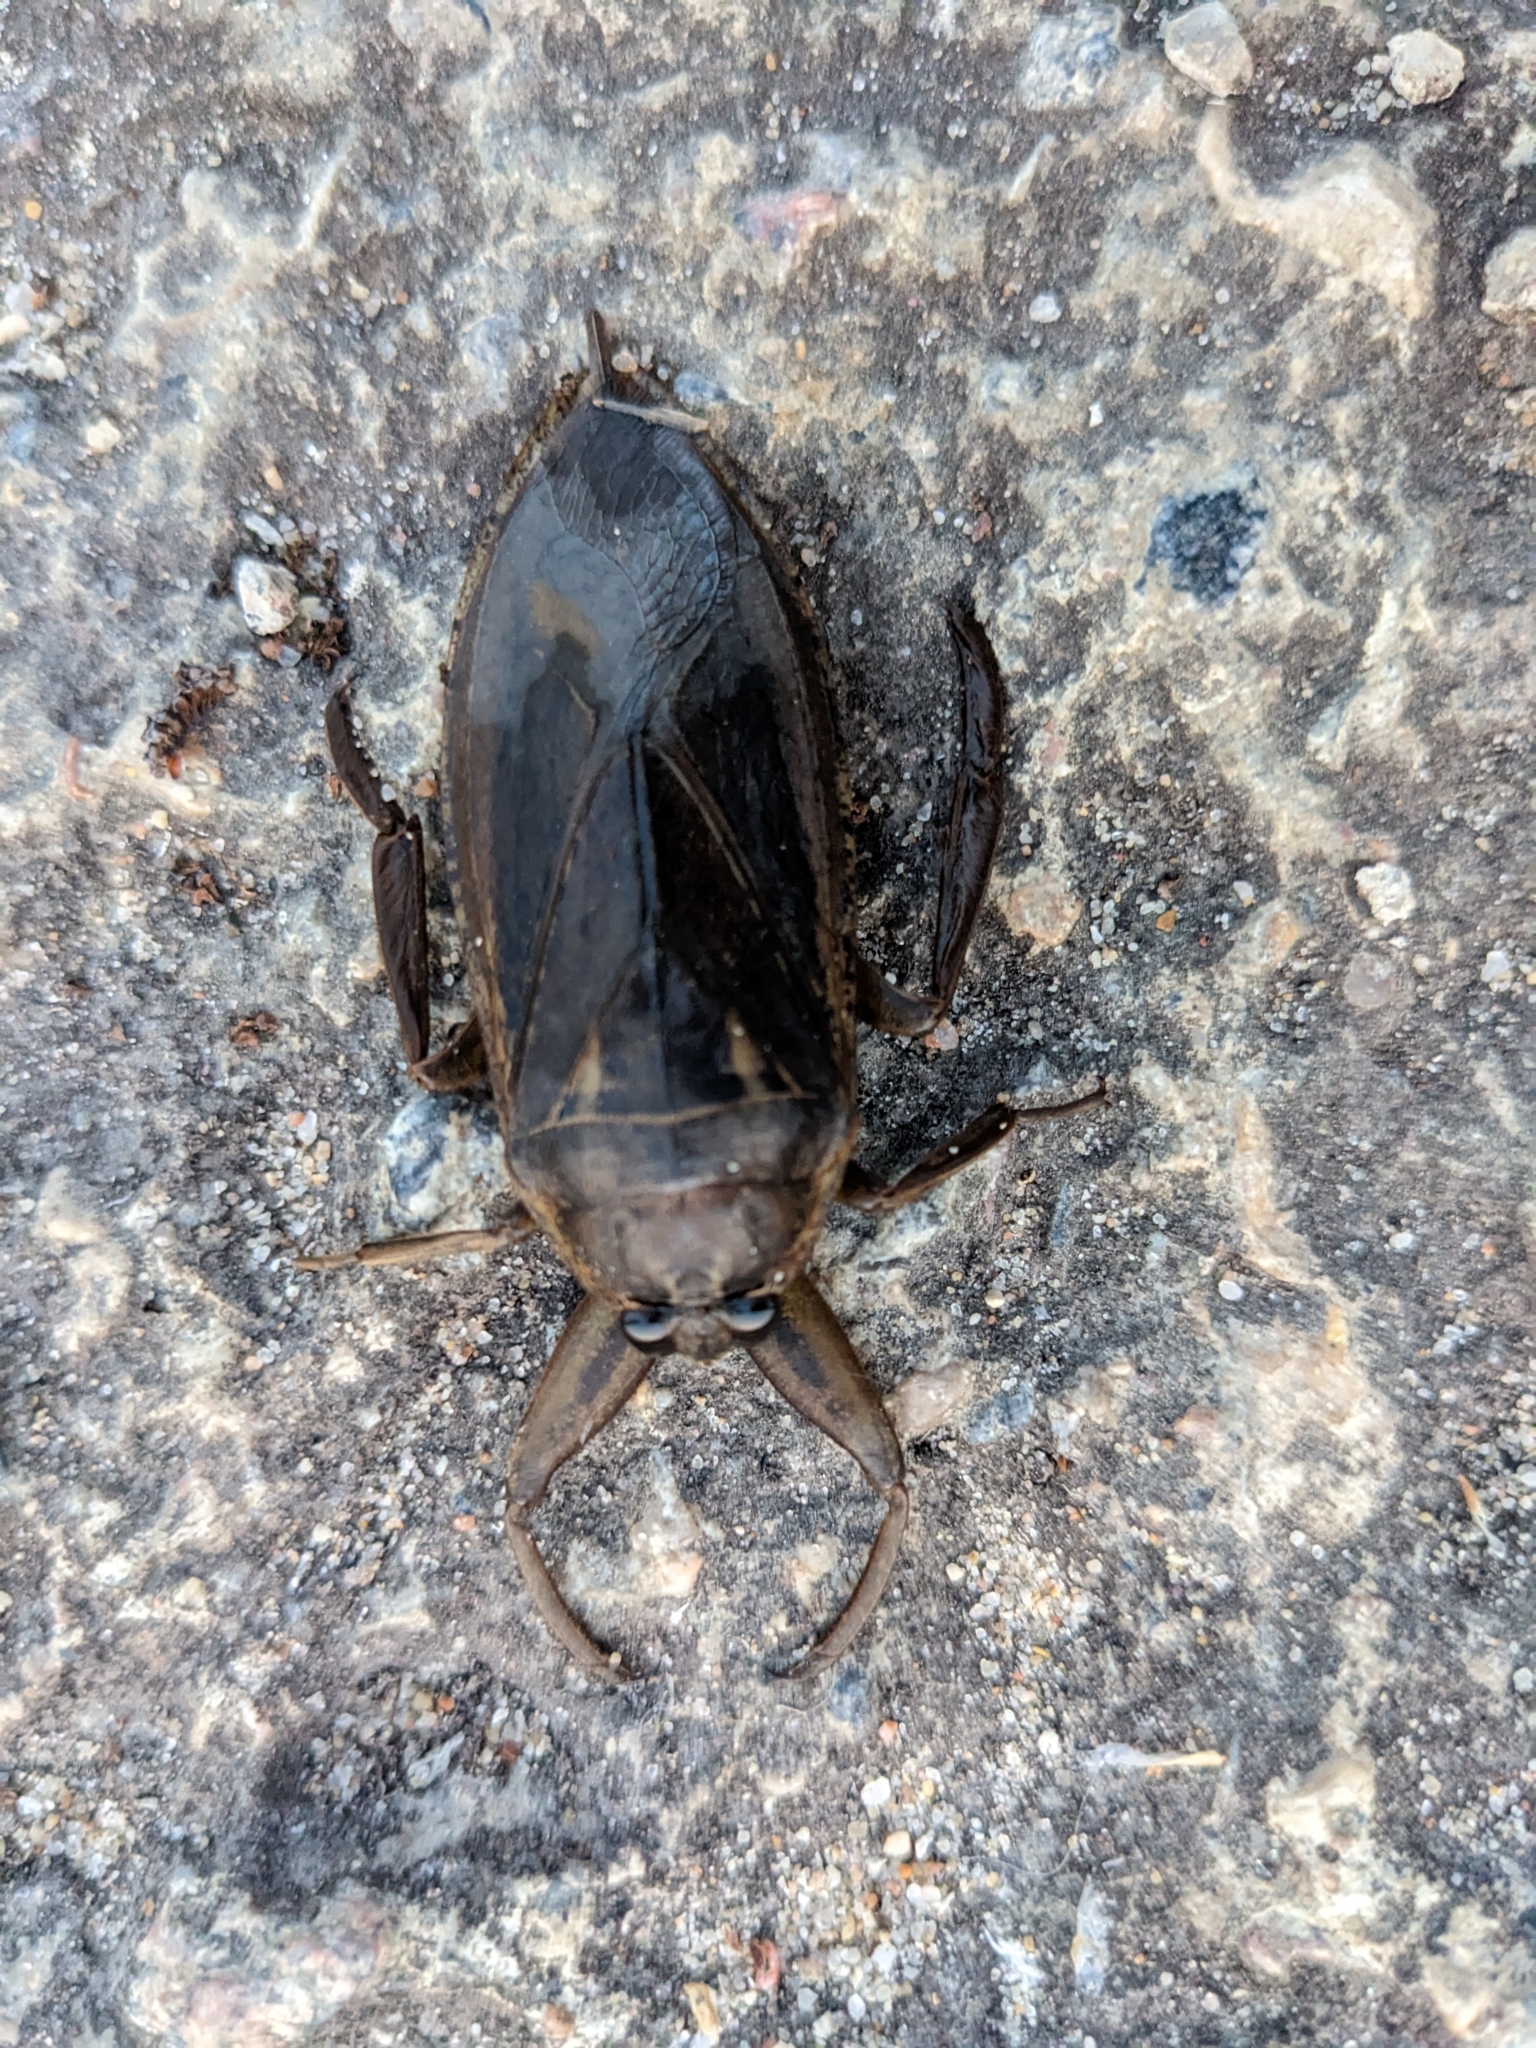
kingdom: Animalia
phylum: Arthropoda
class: Insecta
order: Hemiptera
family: Belostomatidae
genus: Lethocerus
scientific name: Lethocerus americanus
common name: Giant water bug
